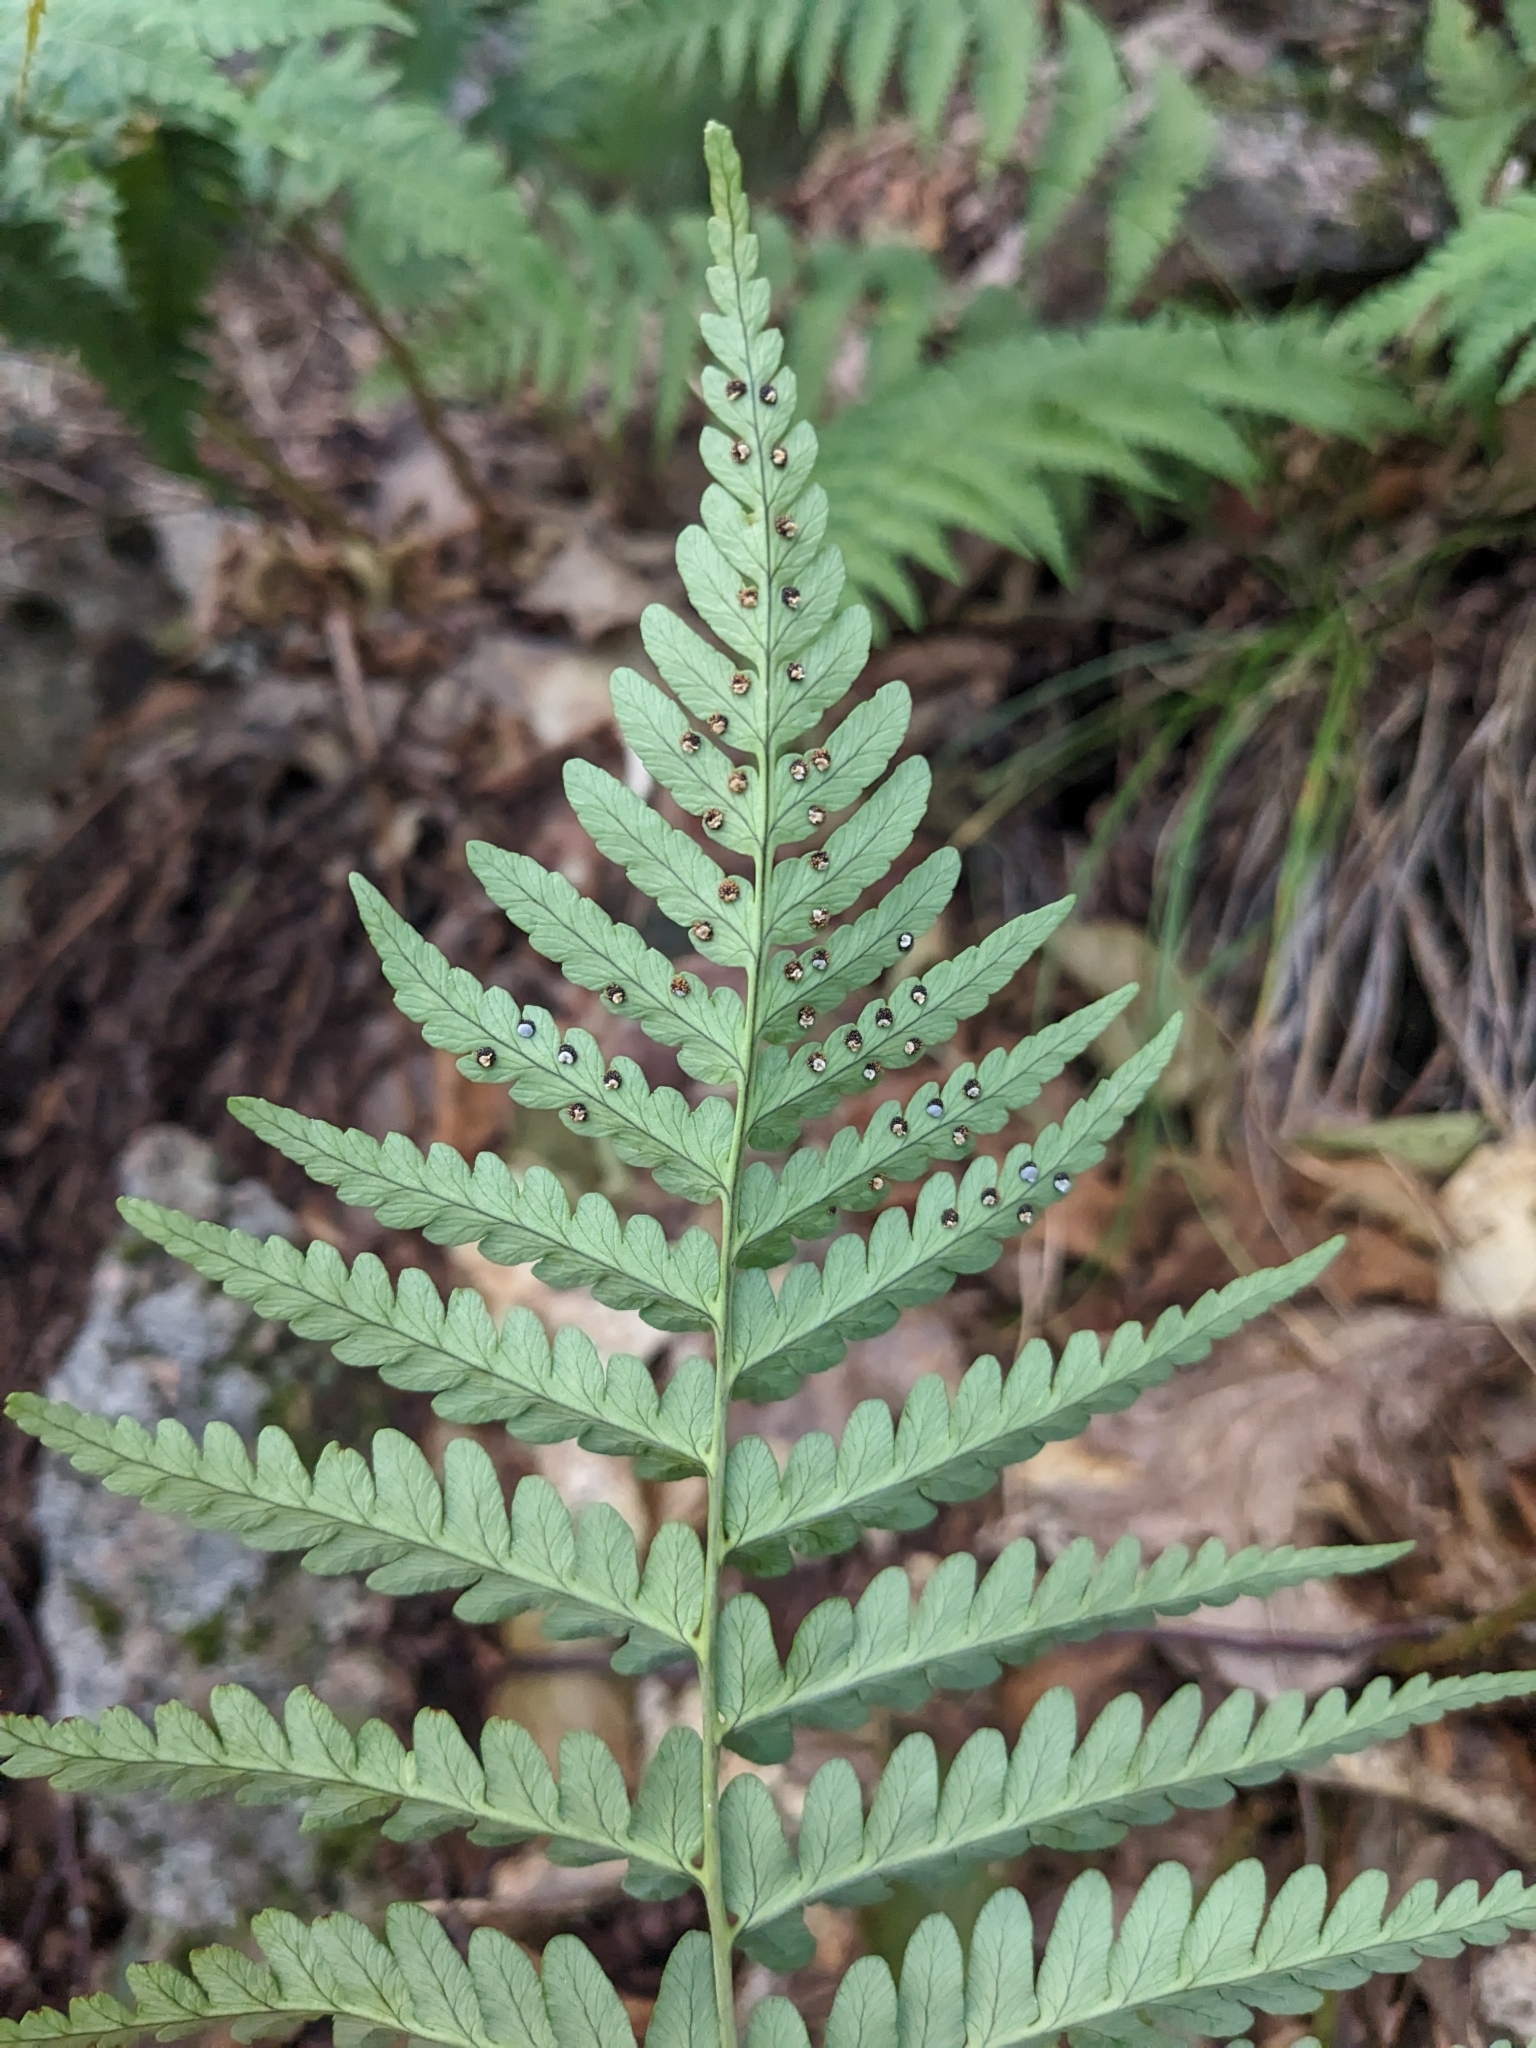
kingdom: Plantae
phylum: Tracheophyta
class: Polypodiopsida
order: Polypodiales
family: Dryopteridaceae
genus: Dryopteris
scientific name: Dryopteris marginalis
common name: Marginal wood fern
